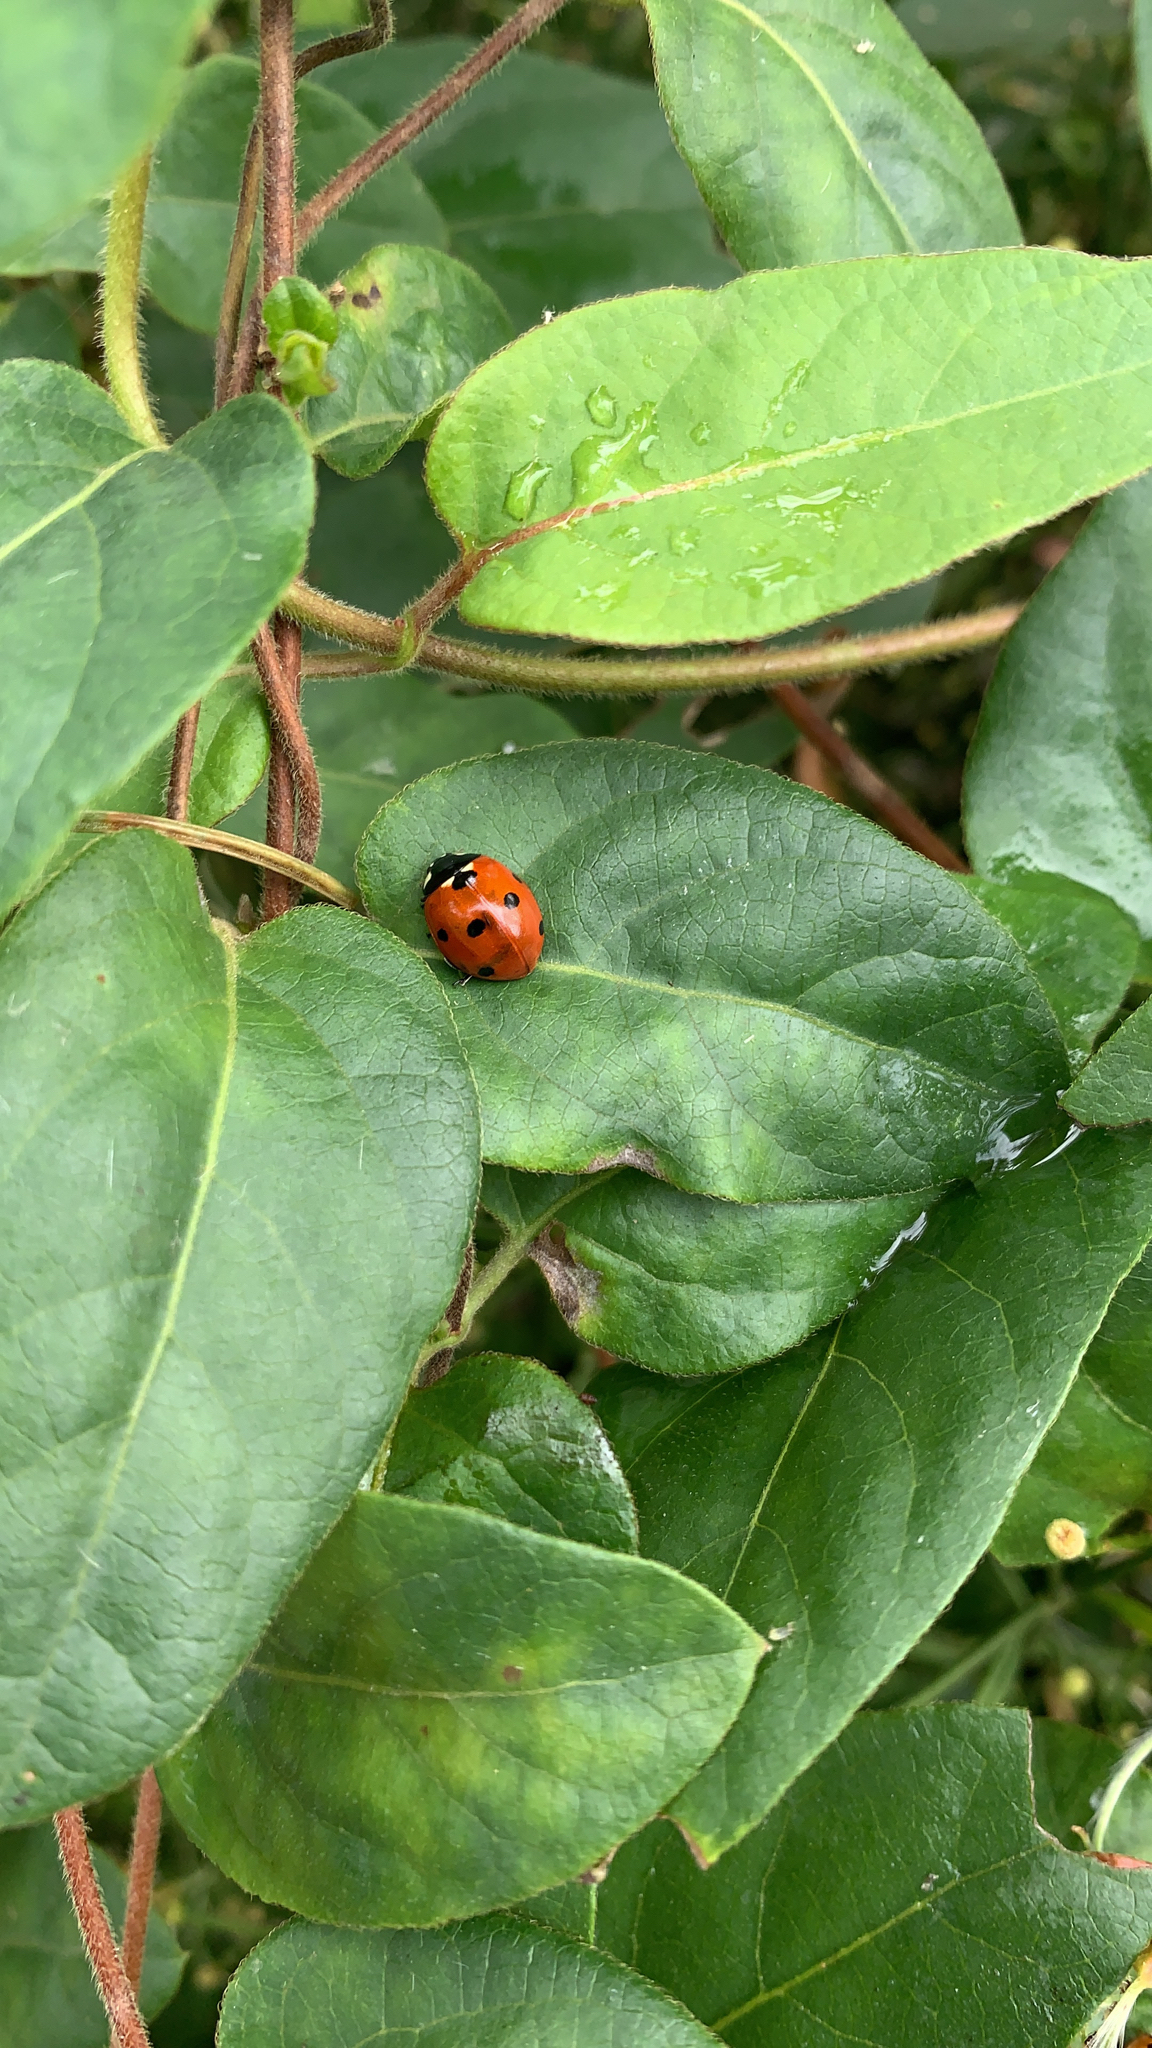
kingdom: Animalia
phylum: Arthropoda
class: Insecta
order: Coleoptera
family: Coccinellidae
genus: Coccinella
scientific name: Coccinella septempunctata
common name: Sevenspotted lady beetle
